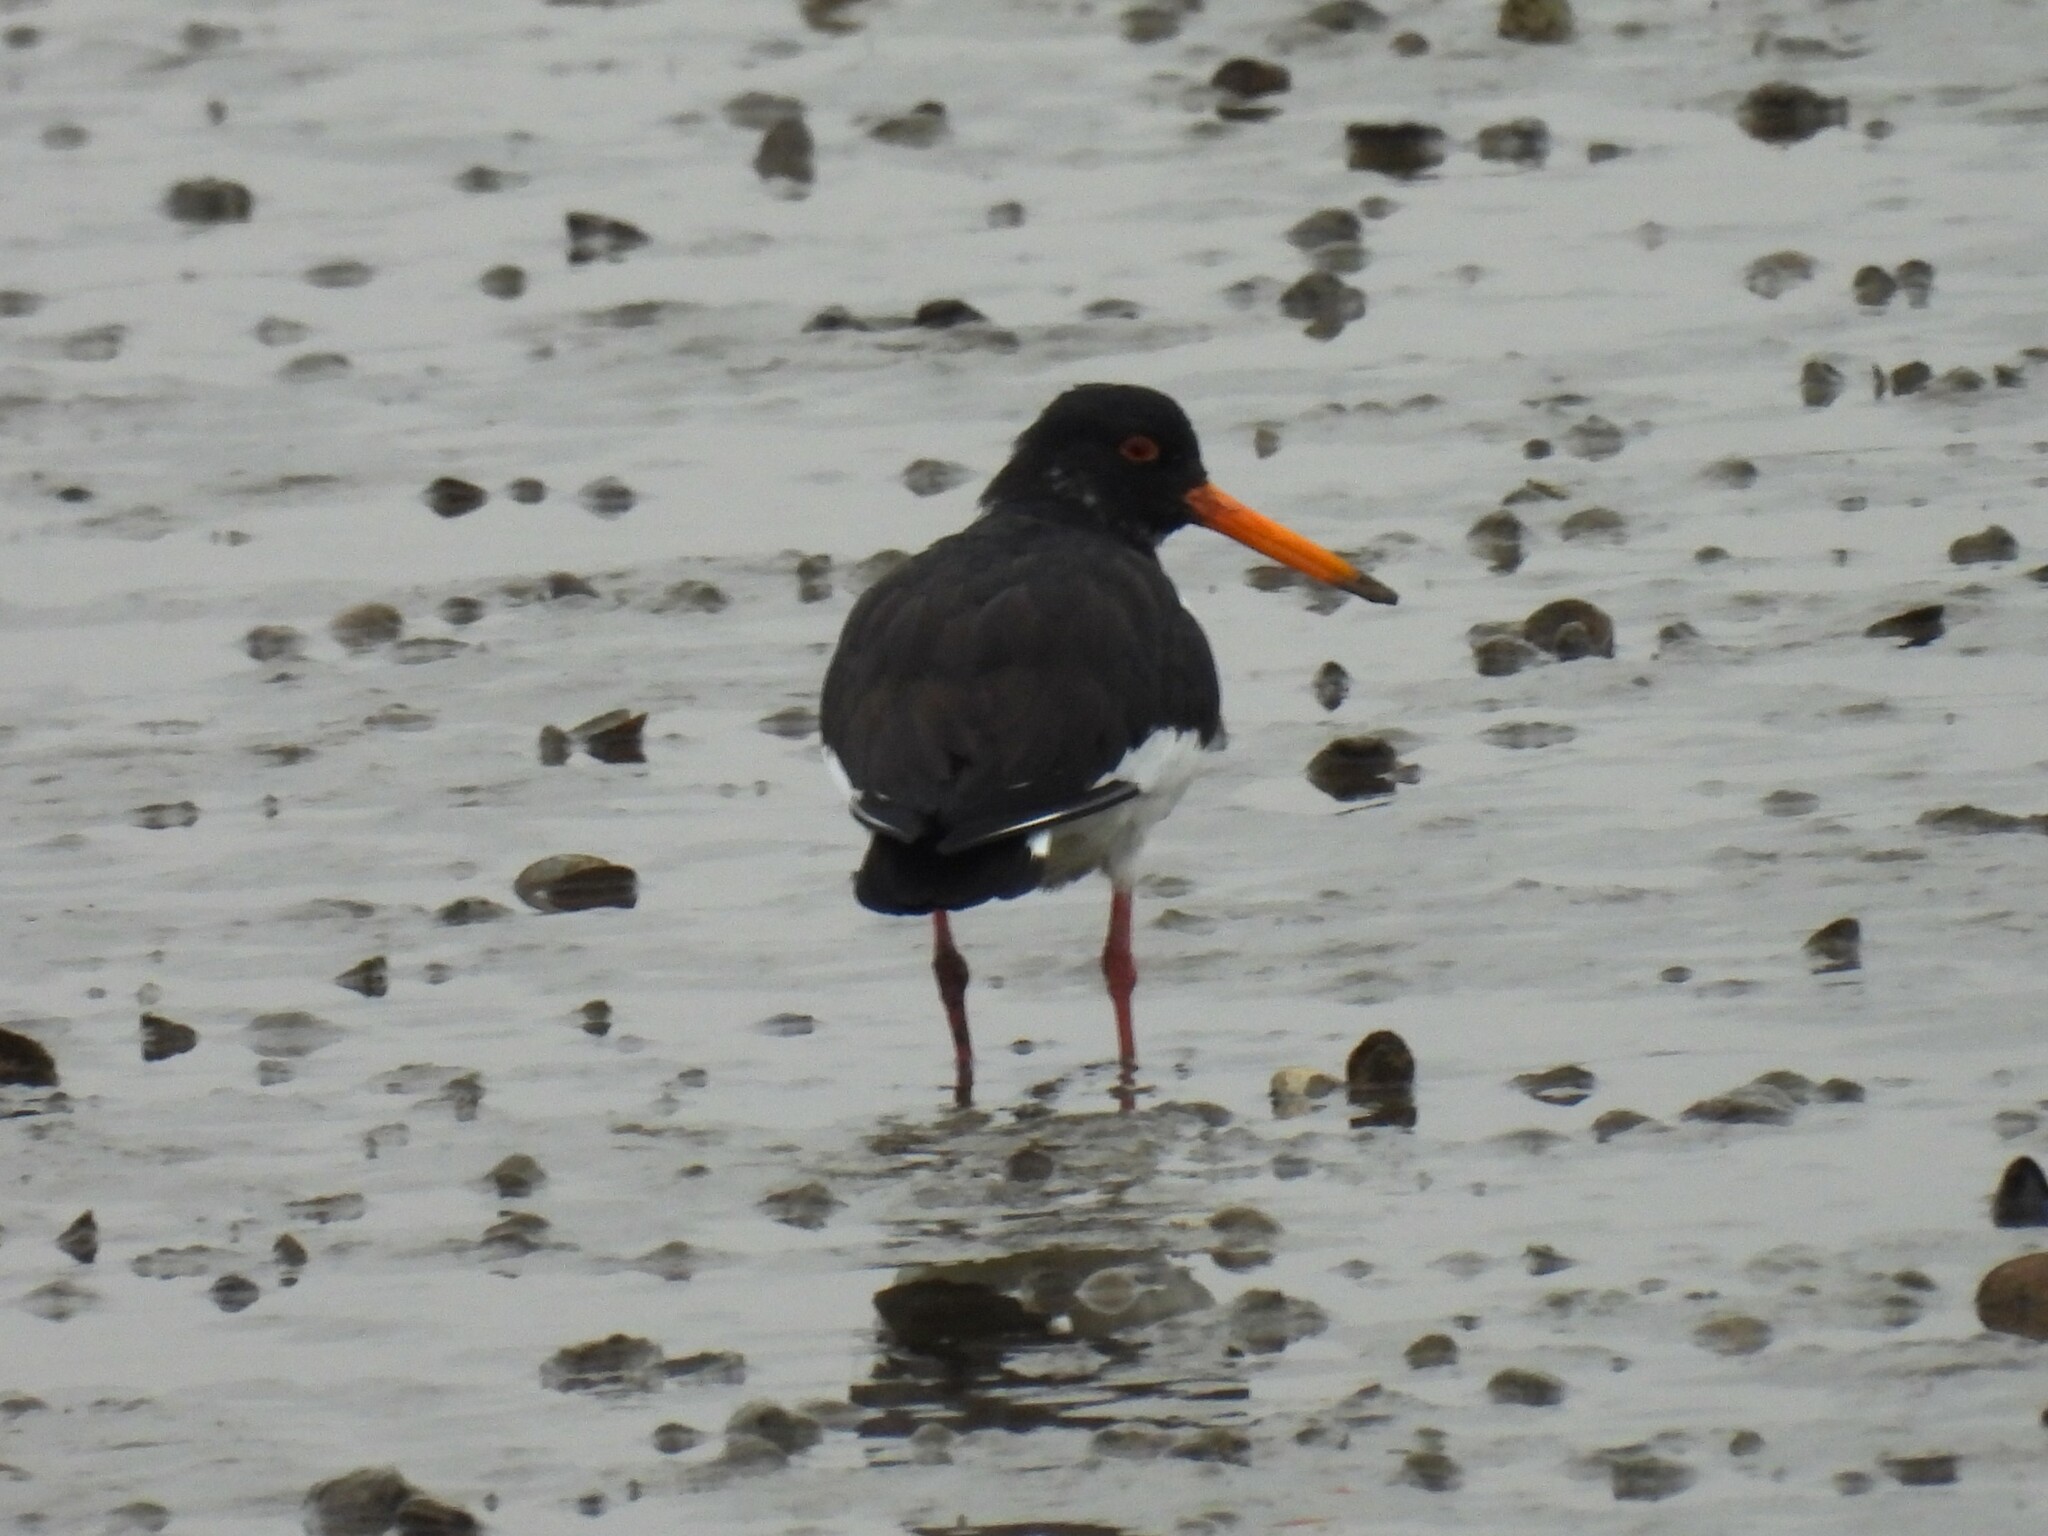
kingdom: Animalia
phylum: Chordata
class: Aves
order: Charadriiformes
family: Haematopodidae
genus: Haematopus
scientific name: Haematopus ostralegus
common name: Eurasian oystercatcher
